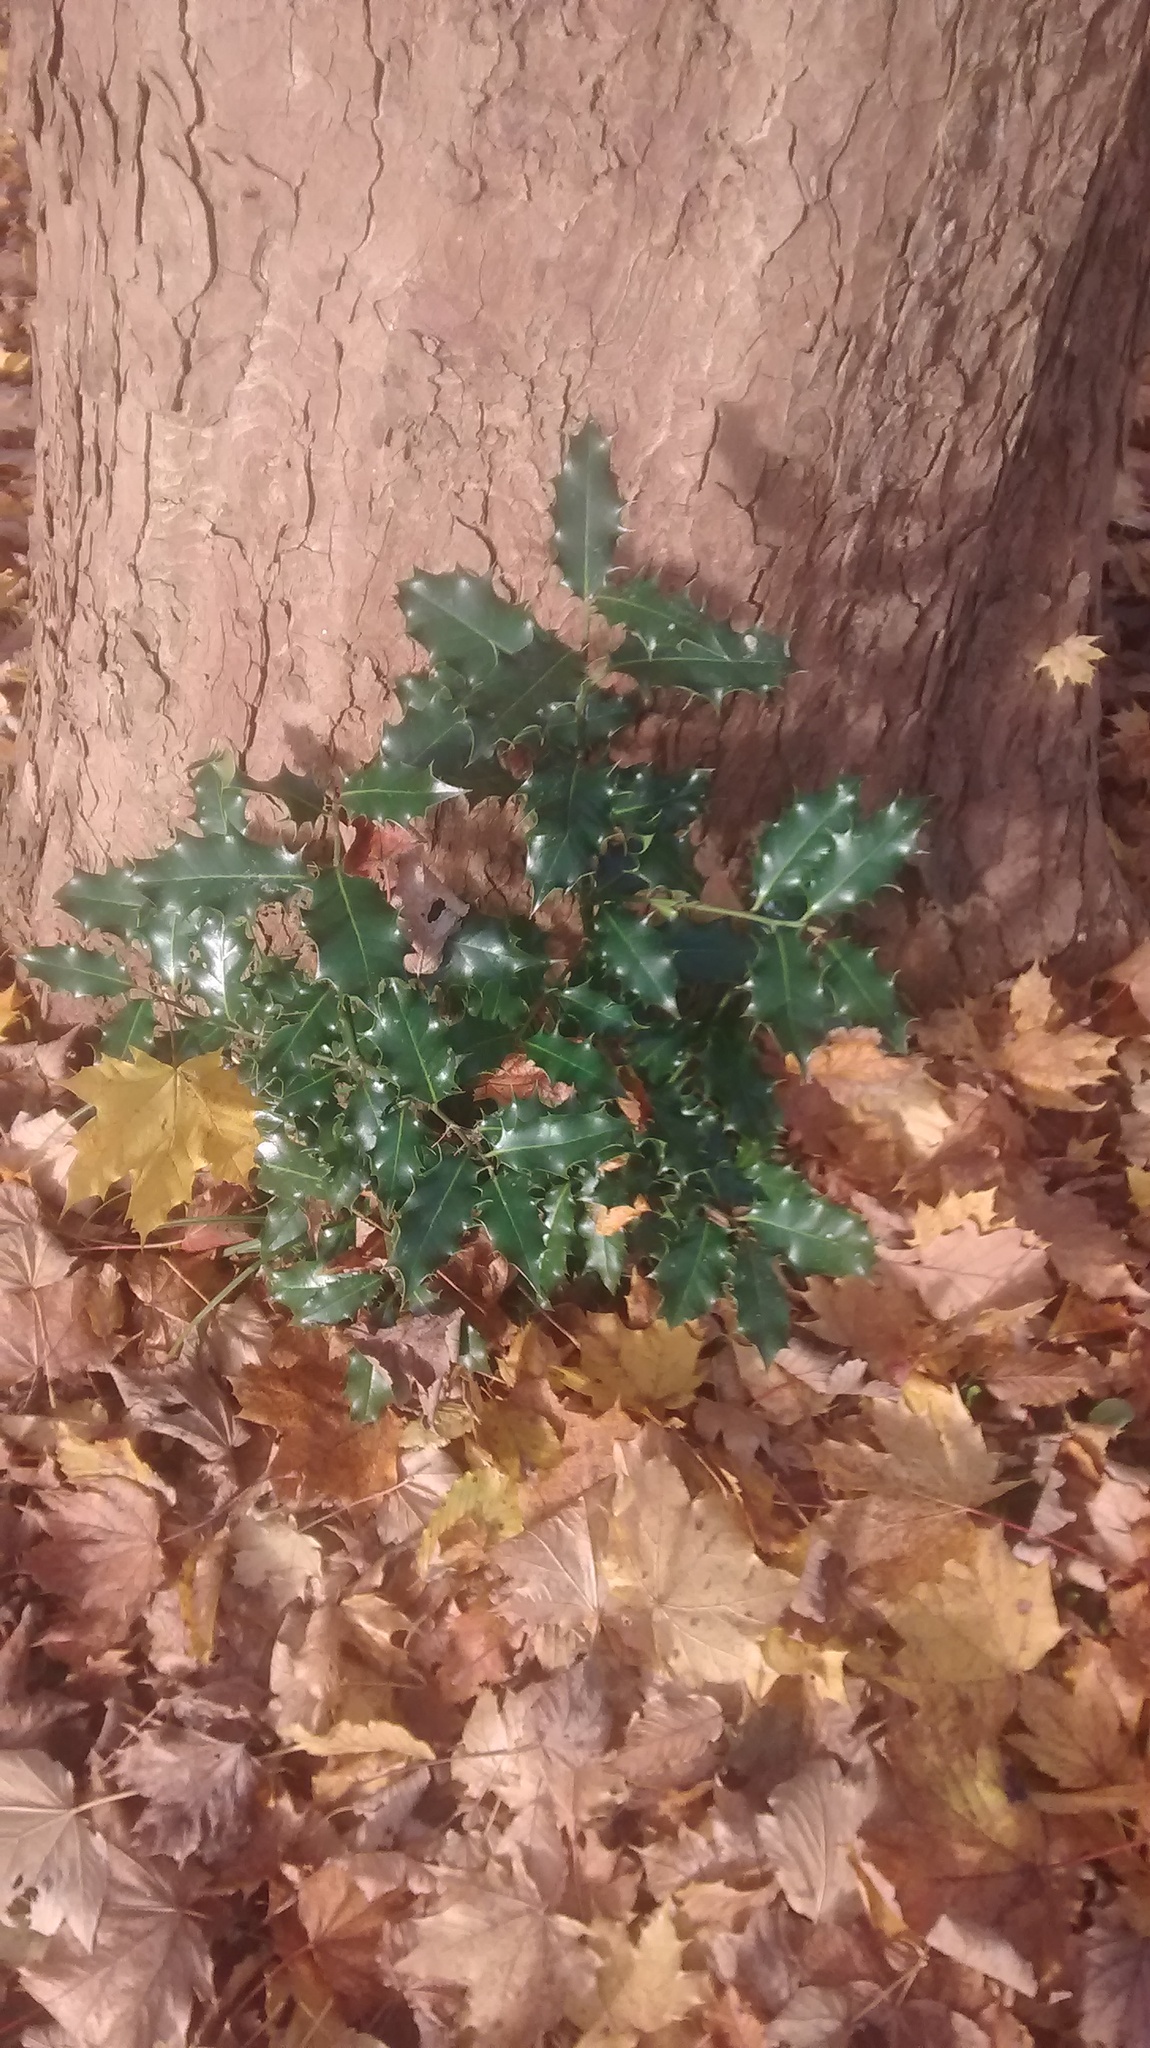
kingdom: Plantae
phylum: Tracheophyta
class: Magnoliopsida
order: Aquifoliales
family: Aquifoliaceae
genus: Ilex
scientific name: Ilex aquifolium
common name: English holly
